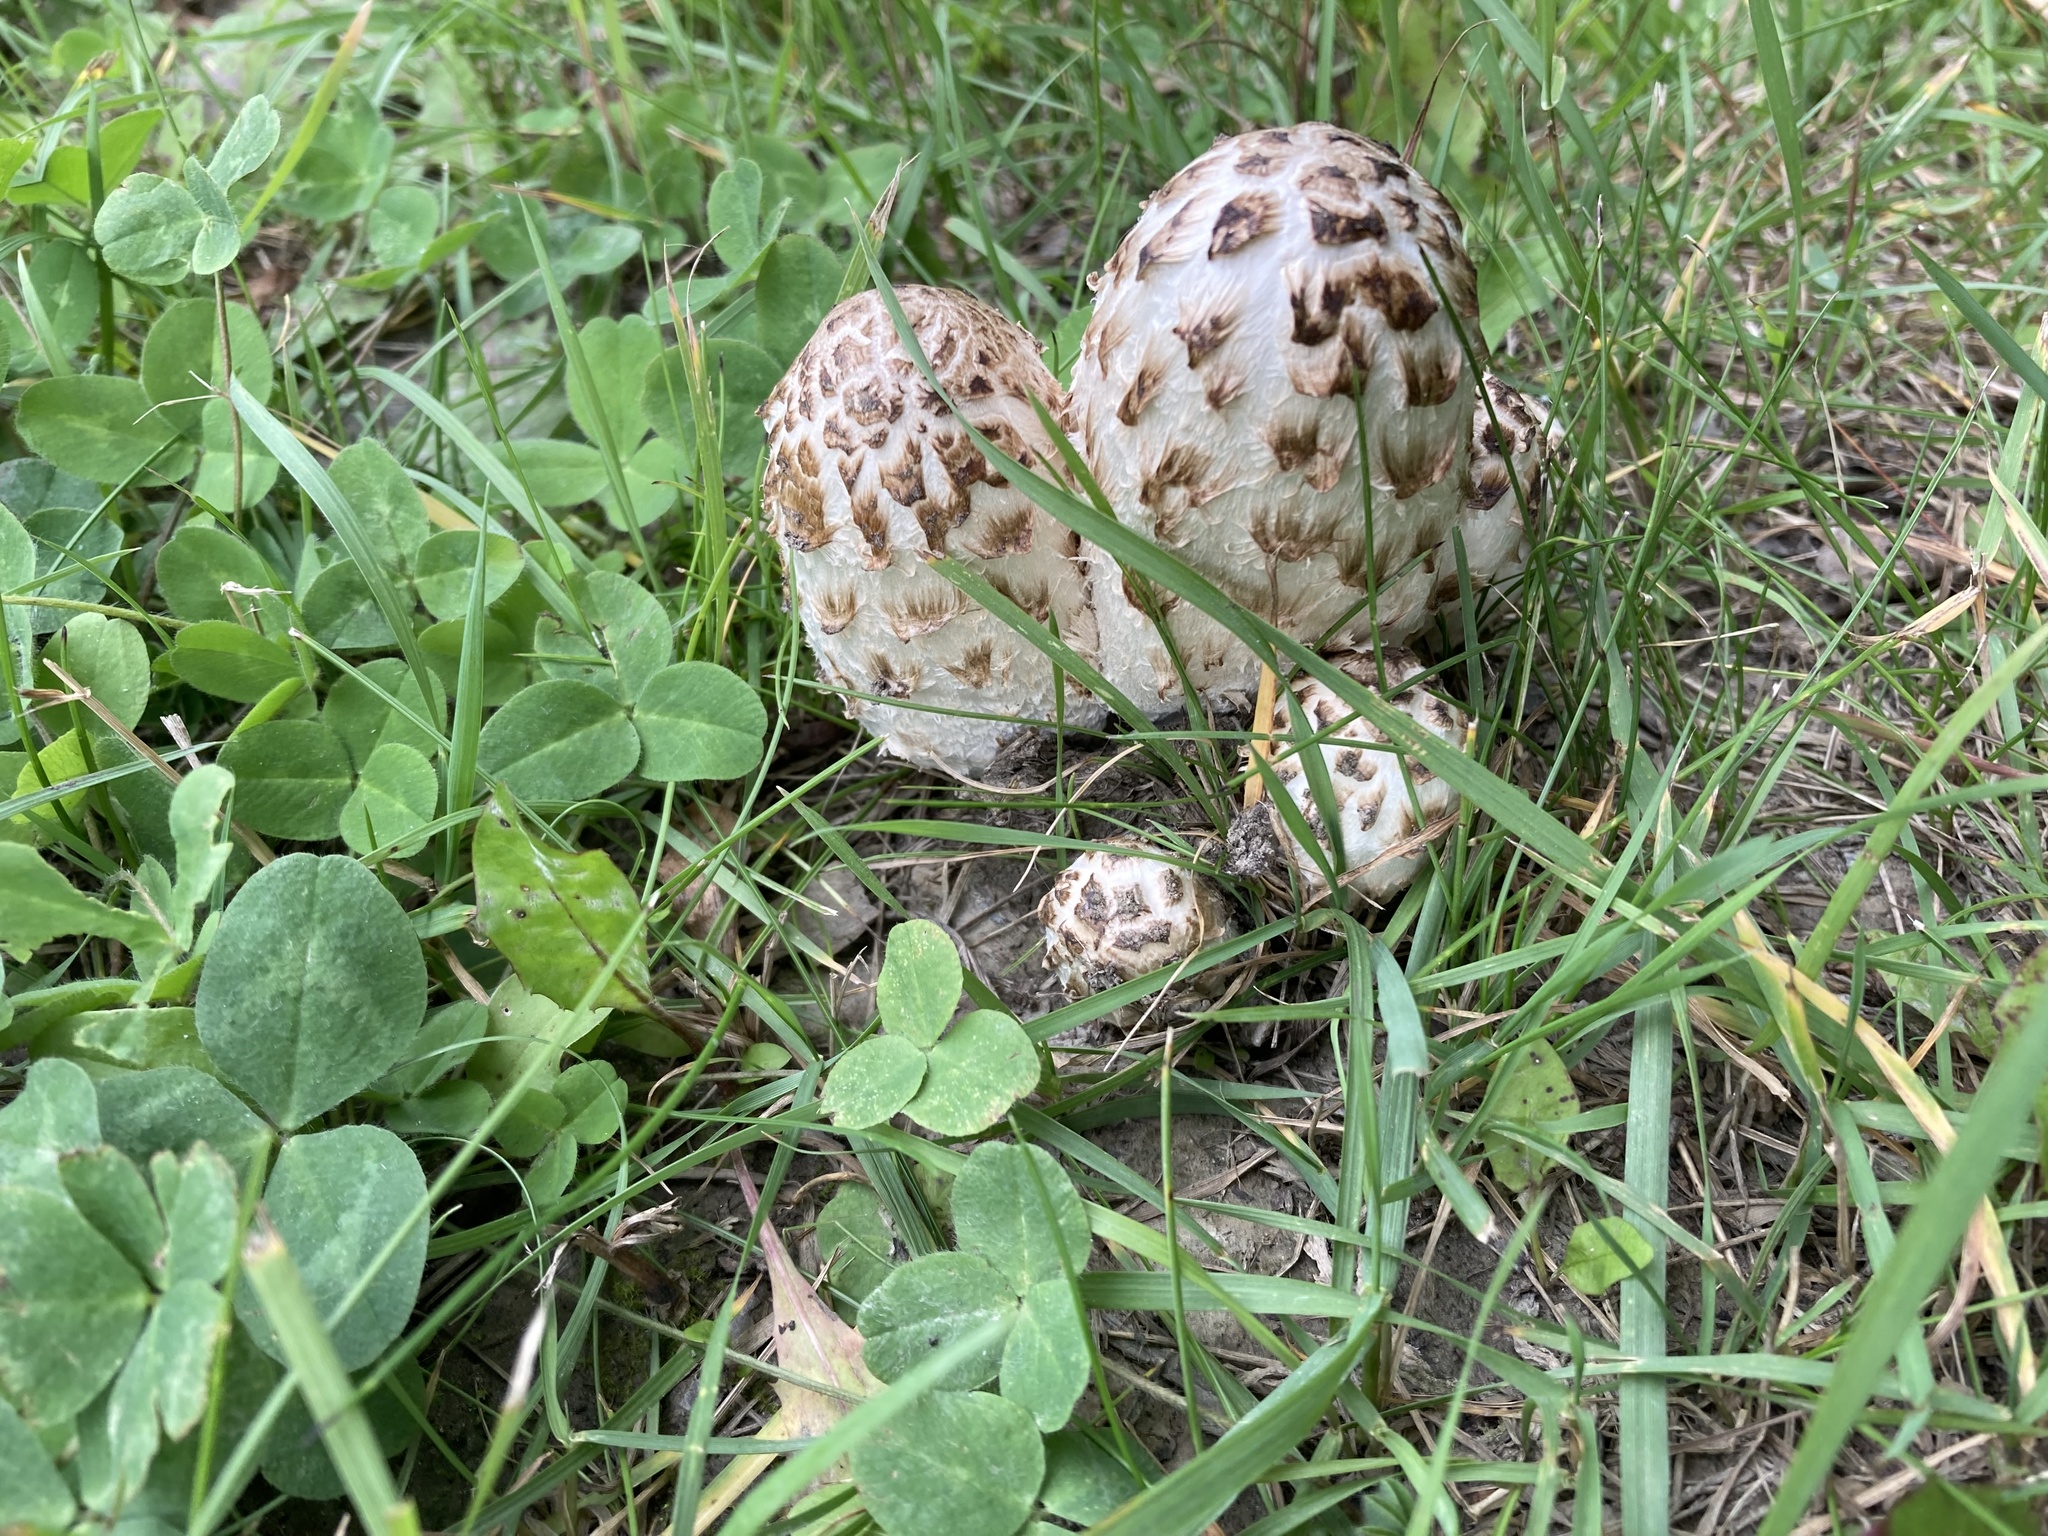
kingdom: Fungi
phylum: Basidiomycota
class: Agaricomycetes
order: Agaricales
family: Agaricaceae
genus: Coprinus
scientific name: Coprinus comatus
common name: Lawyer's wig
